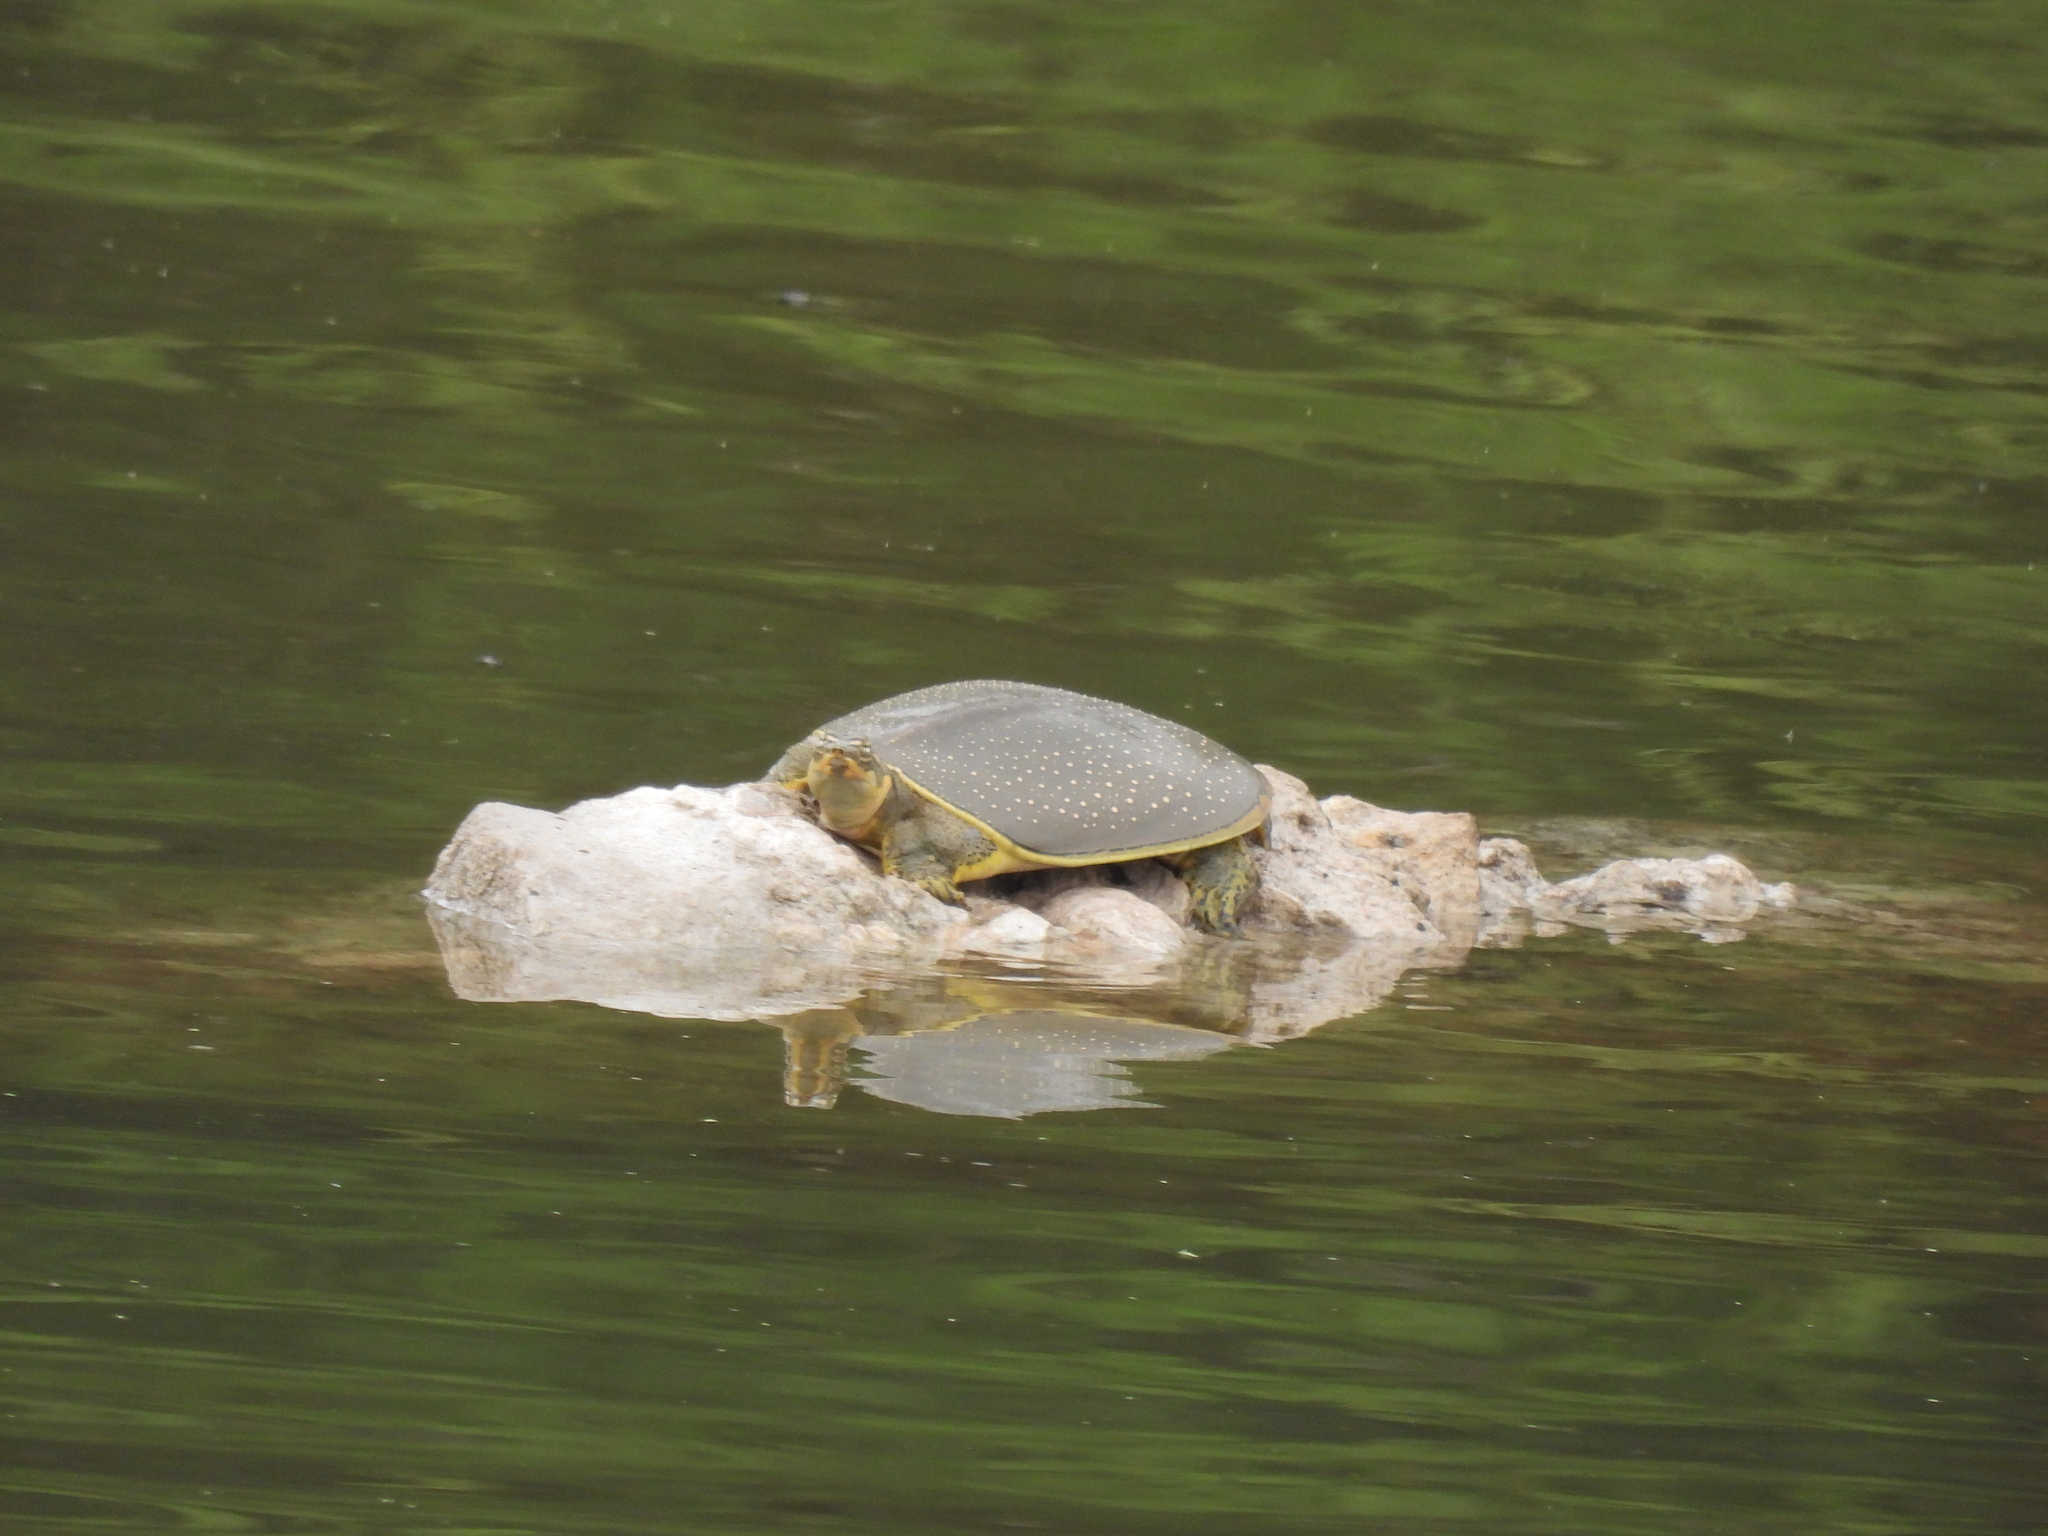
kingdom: Animalia
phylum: Chordata
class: Testudines
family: Trionychidae
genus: Apalone
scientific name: Apalone spinifera
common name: Spiny softshell turtle
